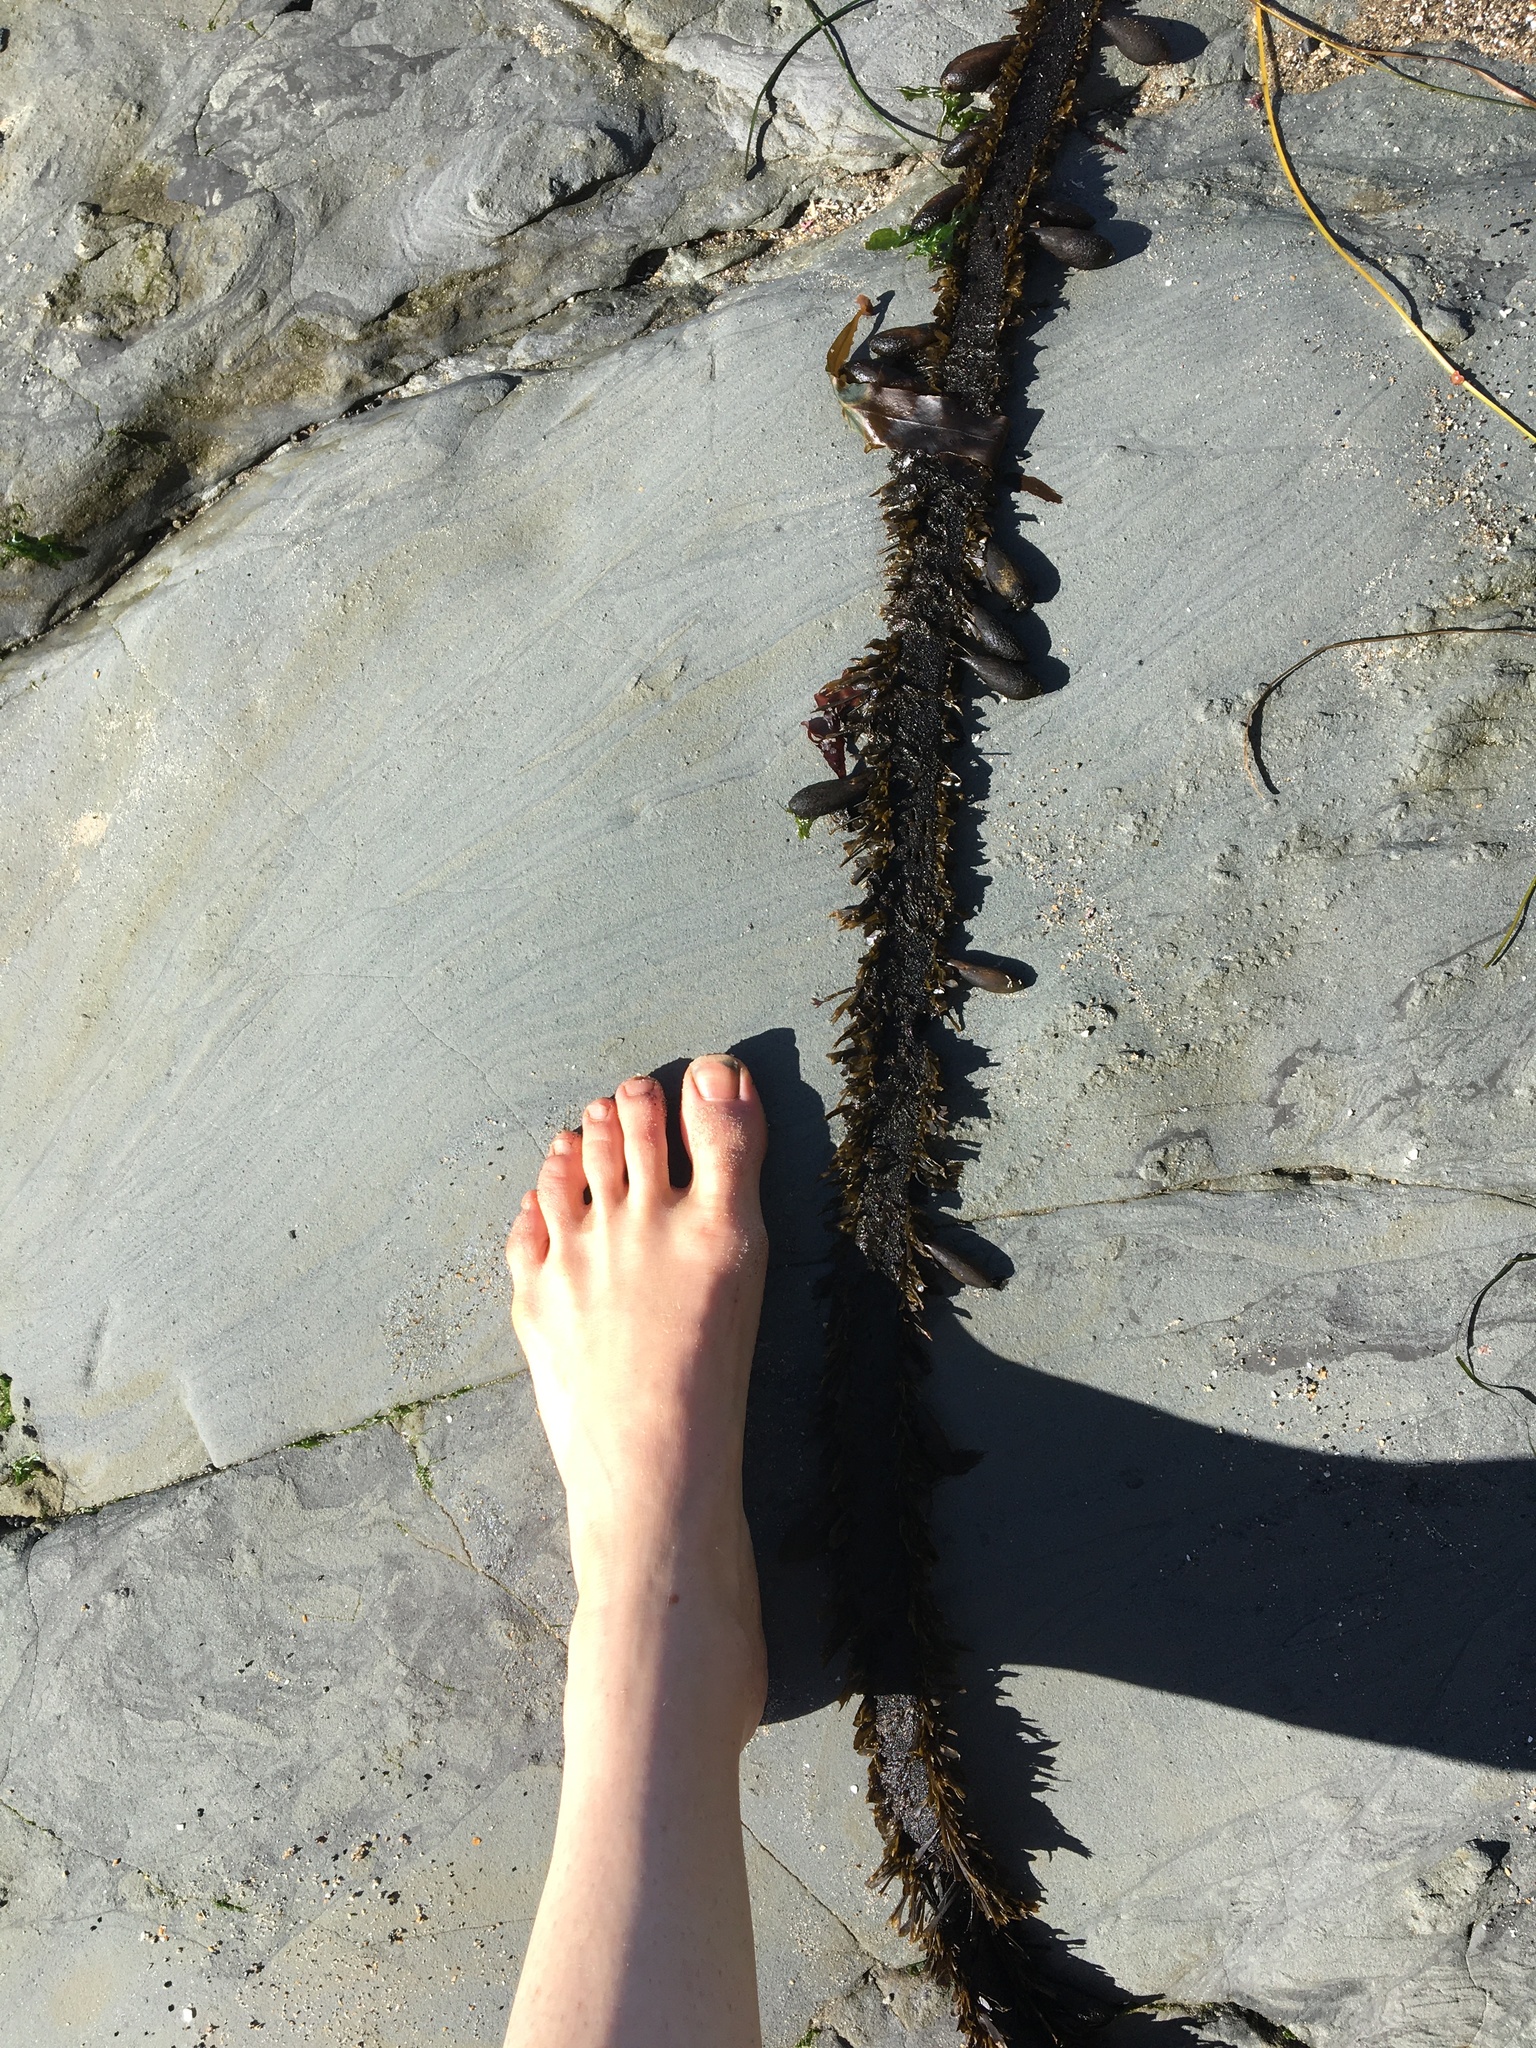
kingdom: Chromista
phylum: Ochrophyta
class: Phaeophyceae
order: Laminariales
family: Lessoniaceae
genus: Egregia
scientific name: Egregia menziesii
